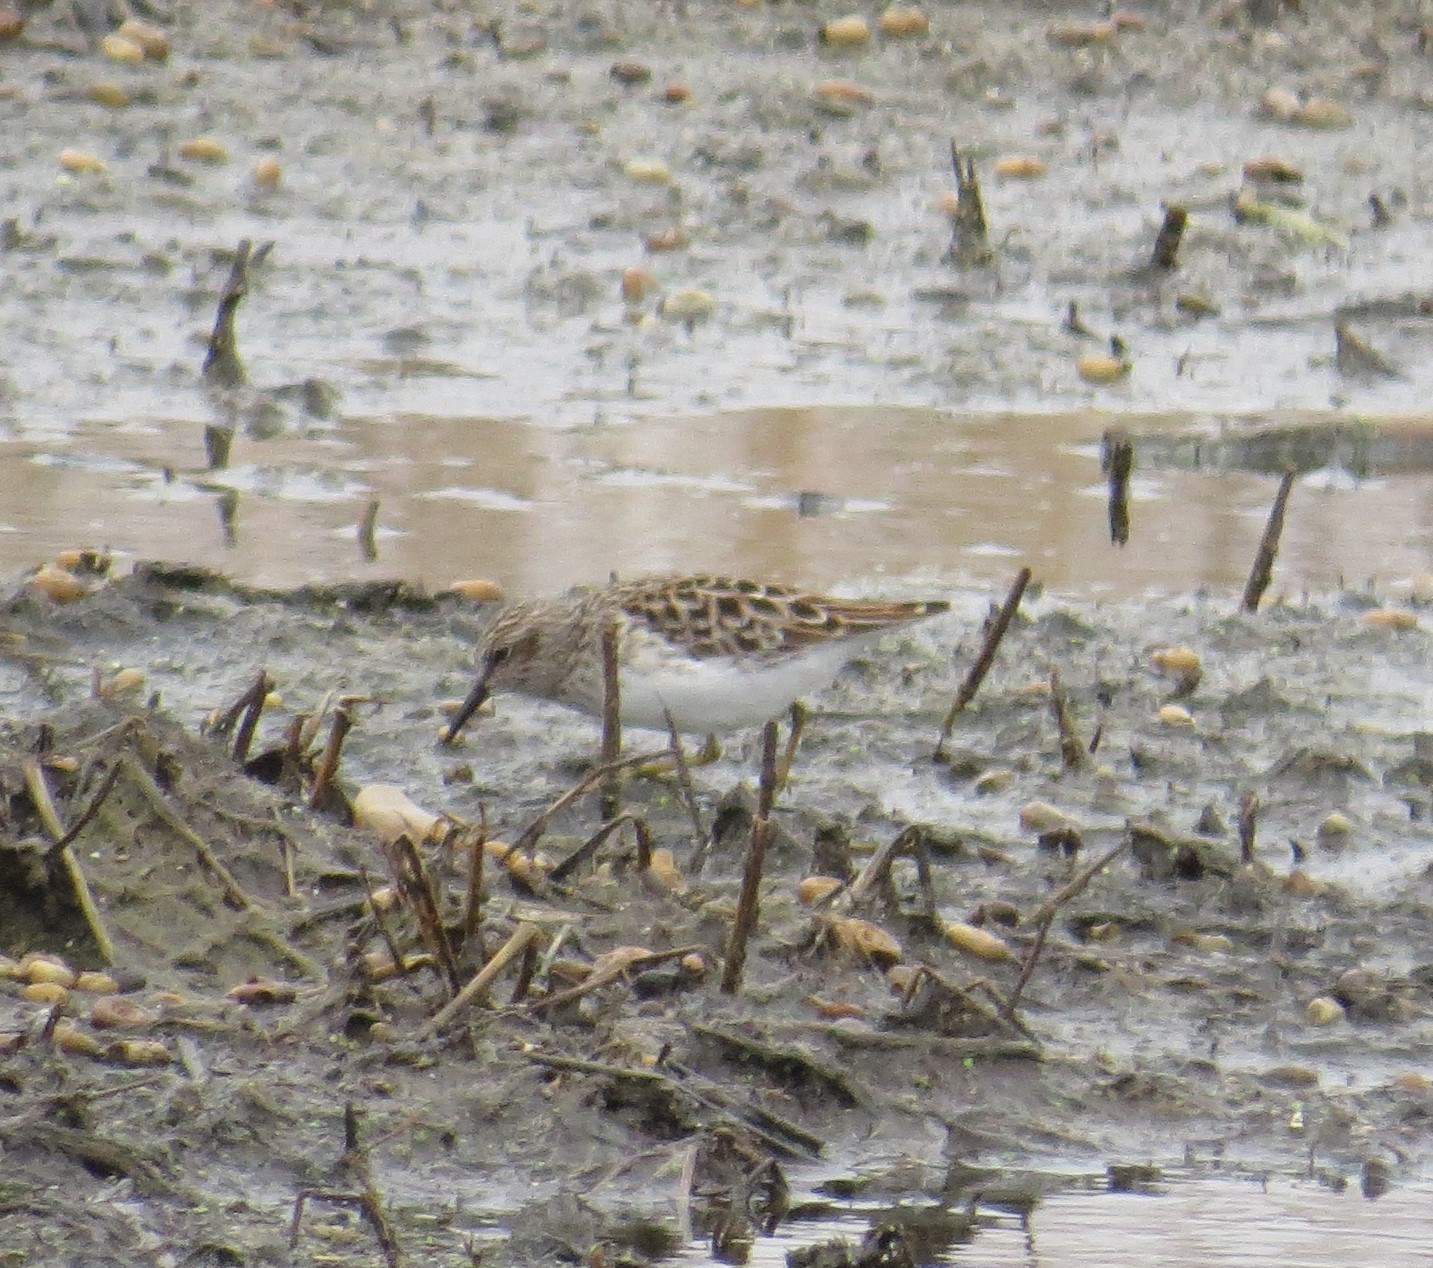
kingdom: Animalia
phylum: Chordata
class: Aves
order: Charadriiformes
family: Scolopacidae
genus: Calidris
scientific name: Calidris minutilla
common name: Least sandpiper
